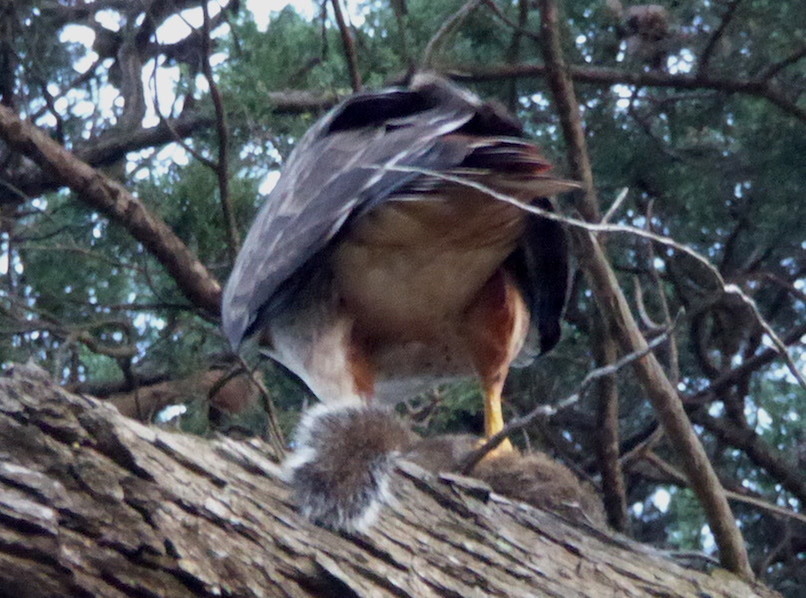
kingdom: Animalia
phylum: Chordata
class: Aves
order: Accipitriformes
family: Accipitridae
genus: Buteo
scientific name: Buteo jamaicensis
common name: Red-tailed hawk
